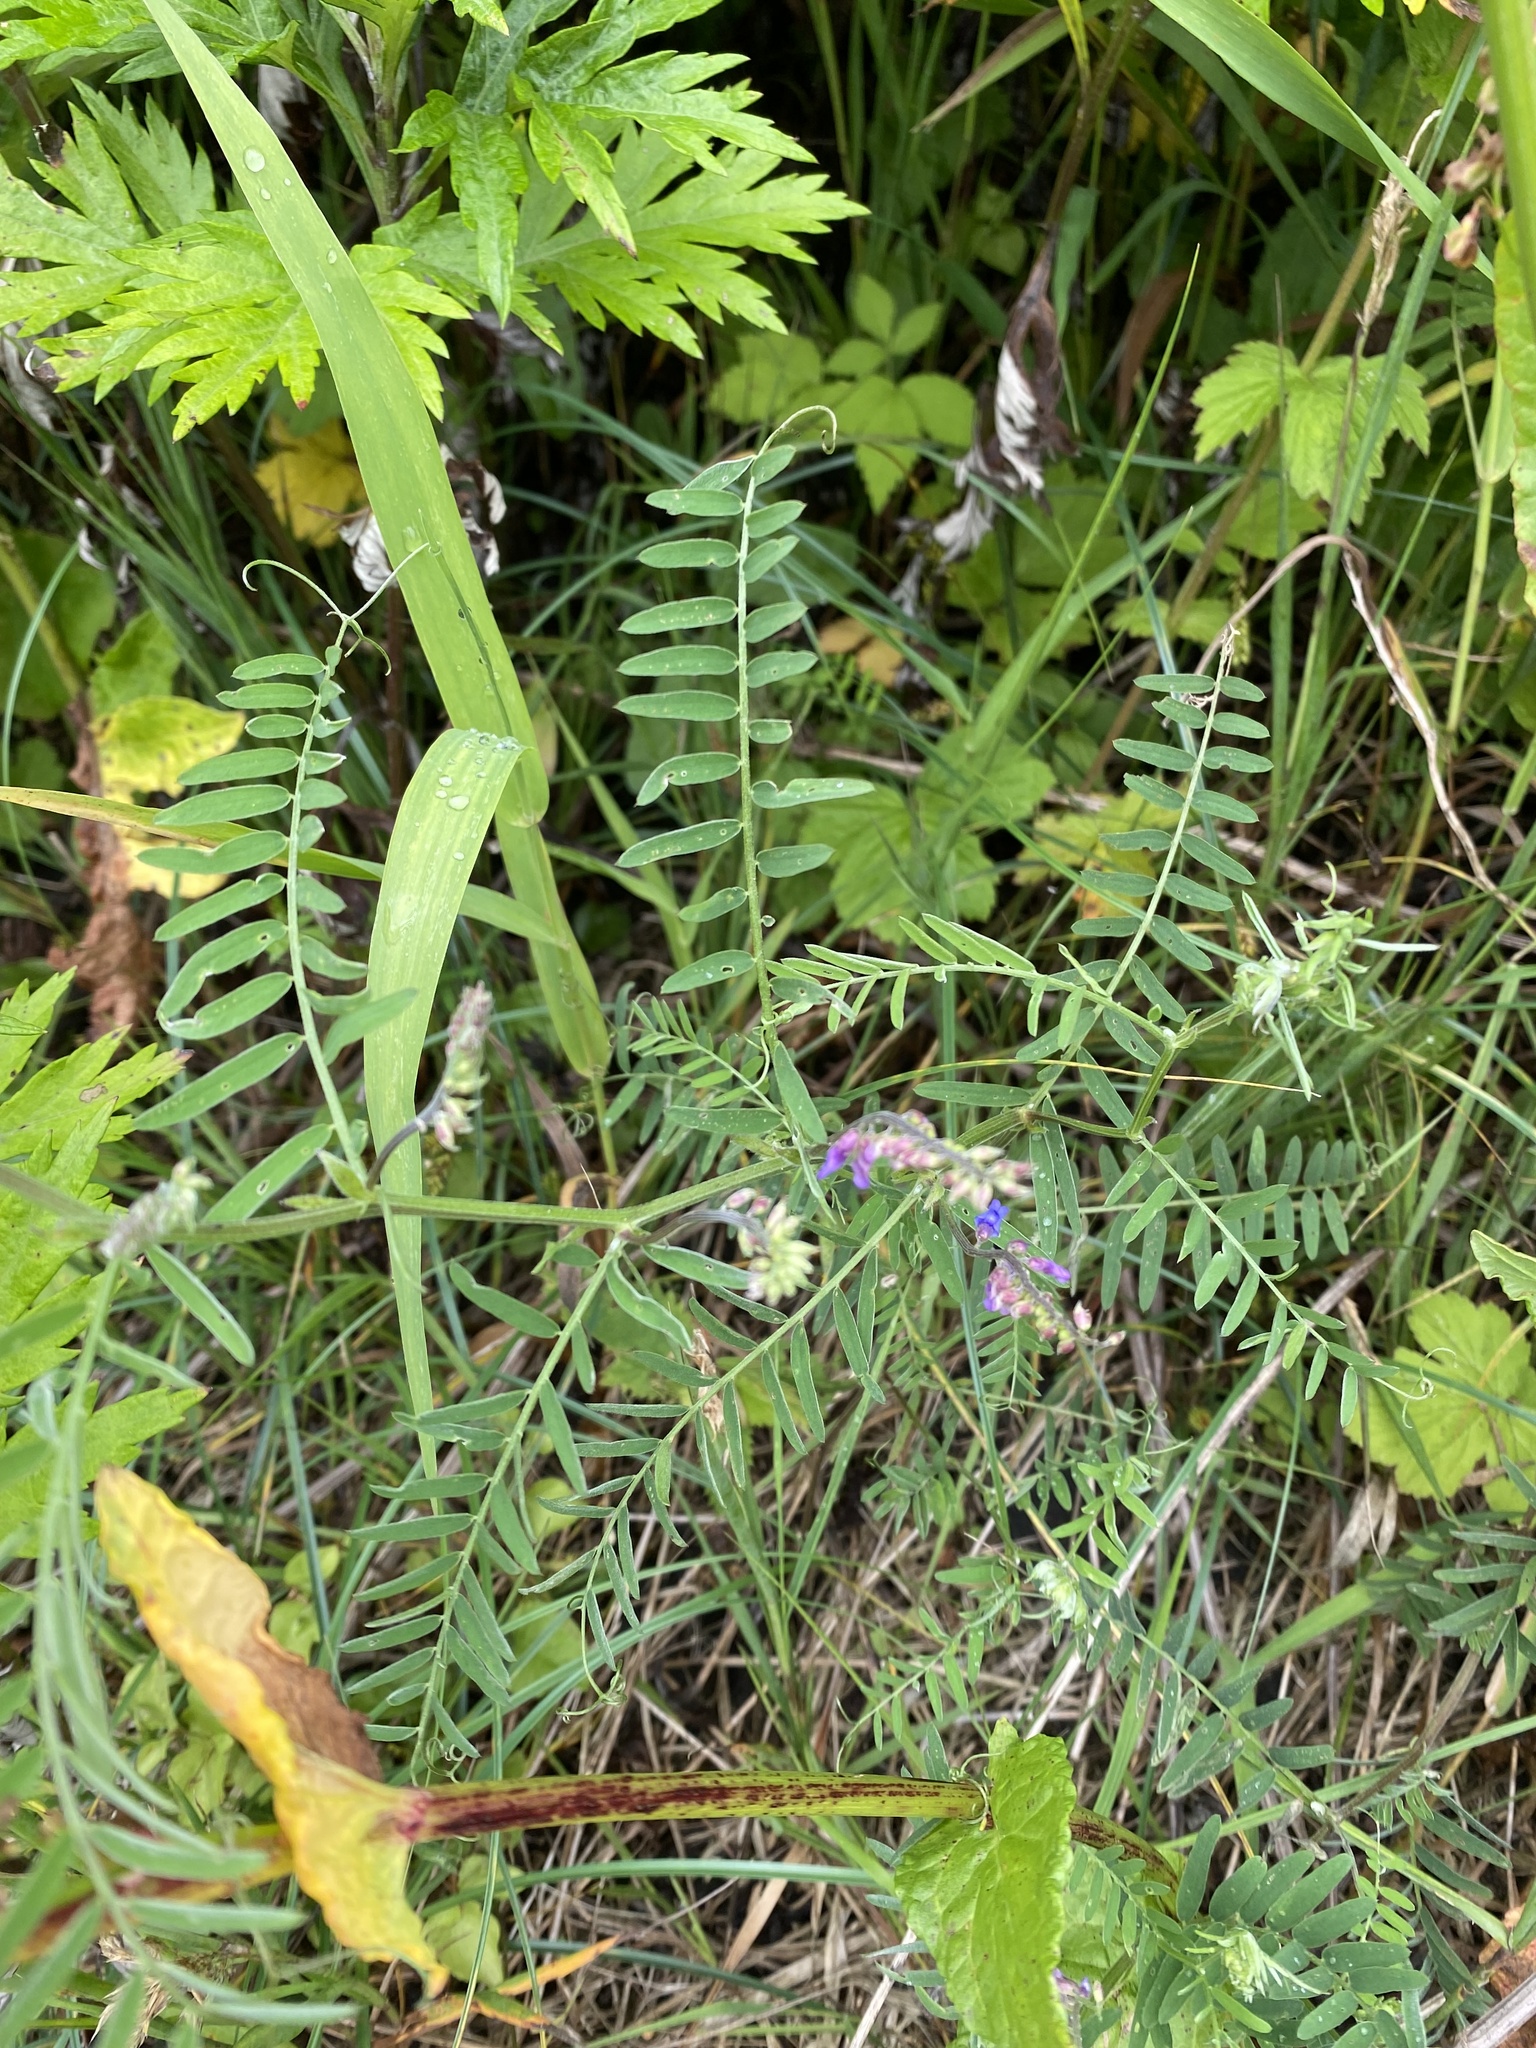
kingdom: Plantae
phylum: Tracheophyta
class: Magnoliopsida
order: Fabales
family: Fabaceae
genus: Vicia
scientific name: Vicia cracca
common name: Bird vetch
